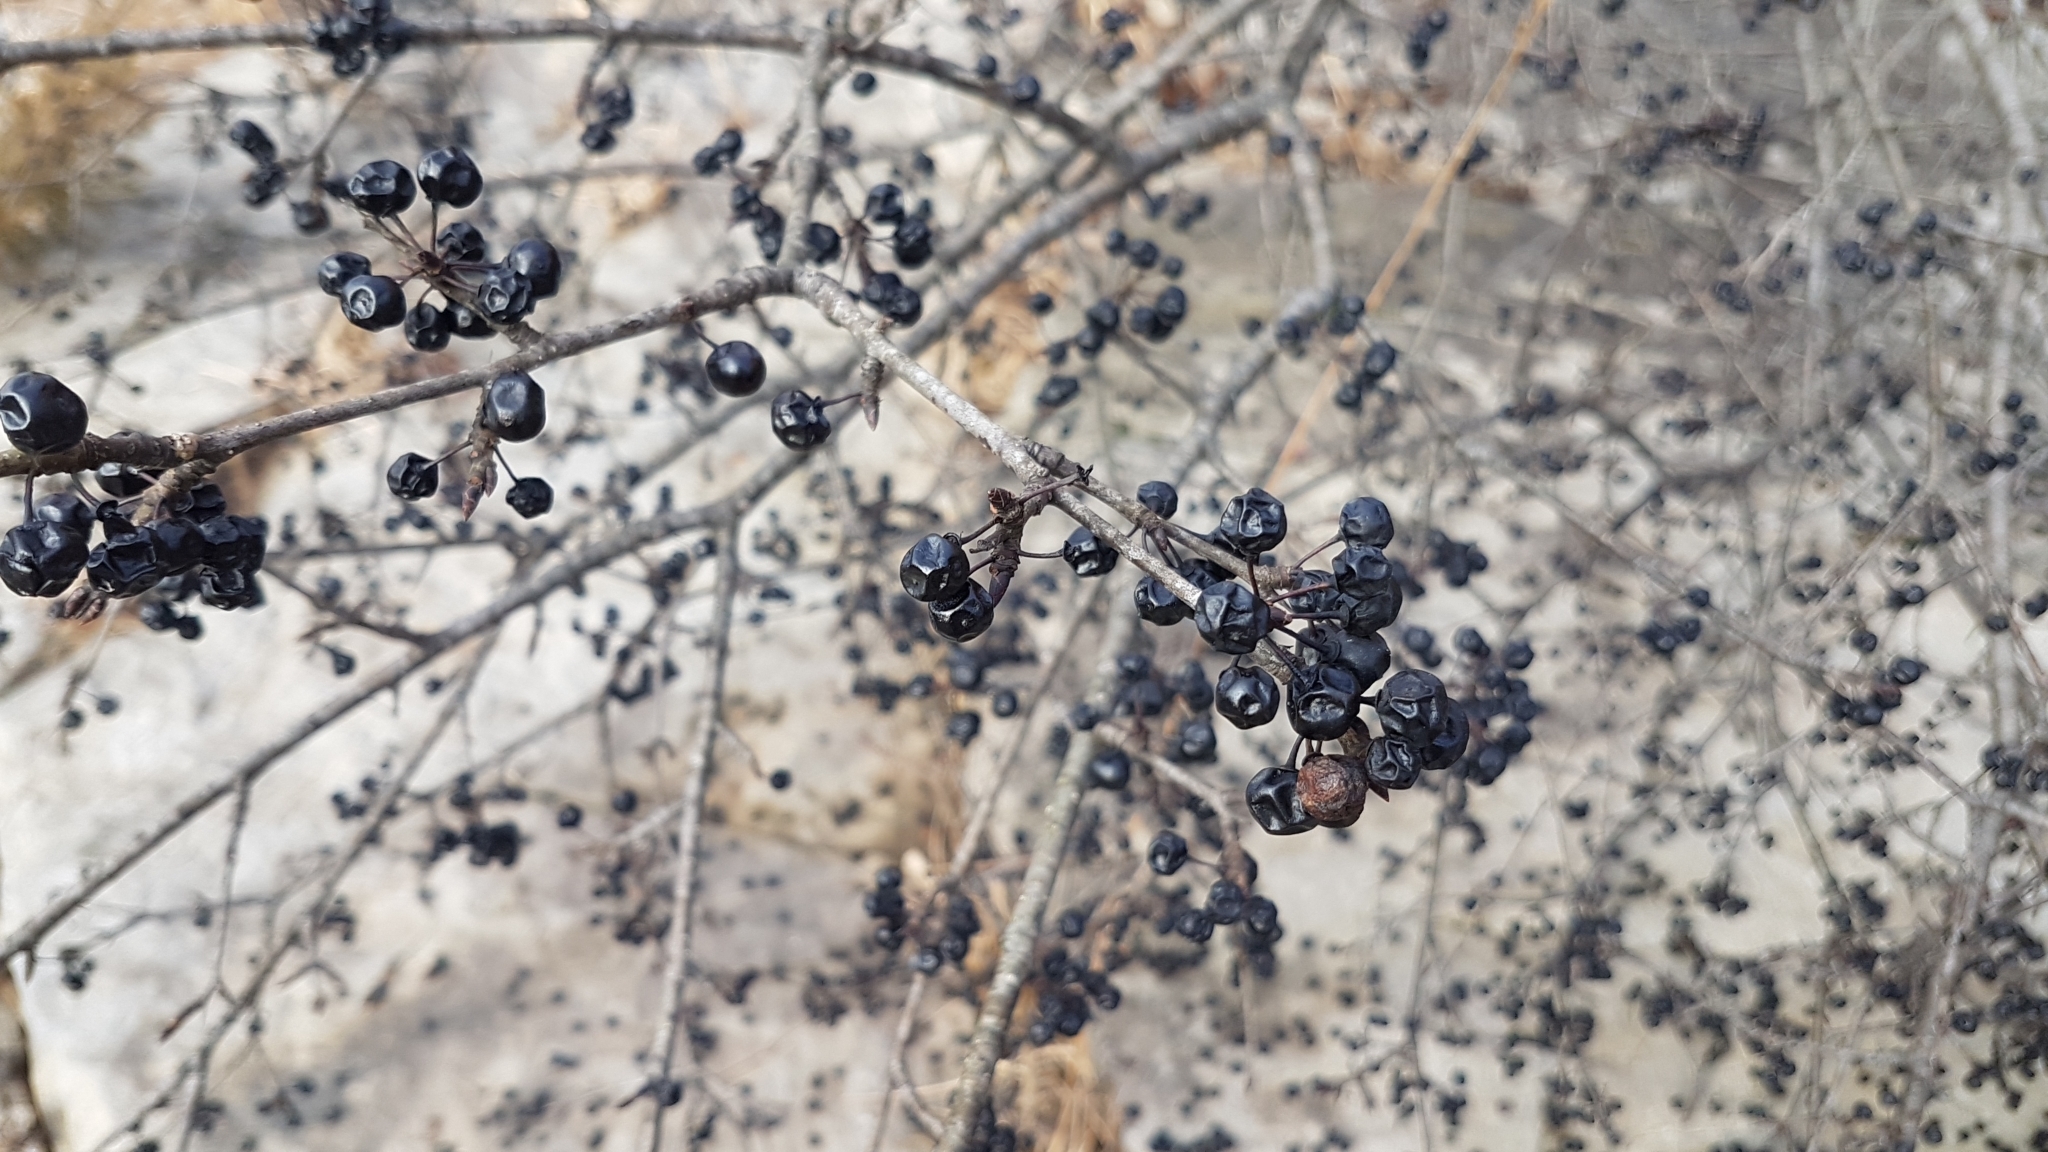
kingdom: Plantae
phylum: Tracheophyta
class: Magnoliopsida
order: Rosales
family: Rhamnaceae
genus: Rhamnus
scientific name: Rhamnus cathartica
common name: Common buckthorn
